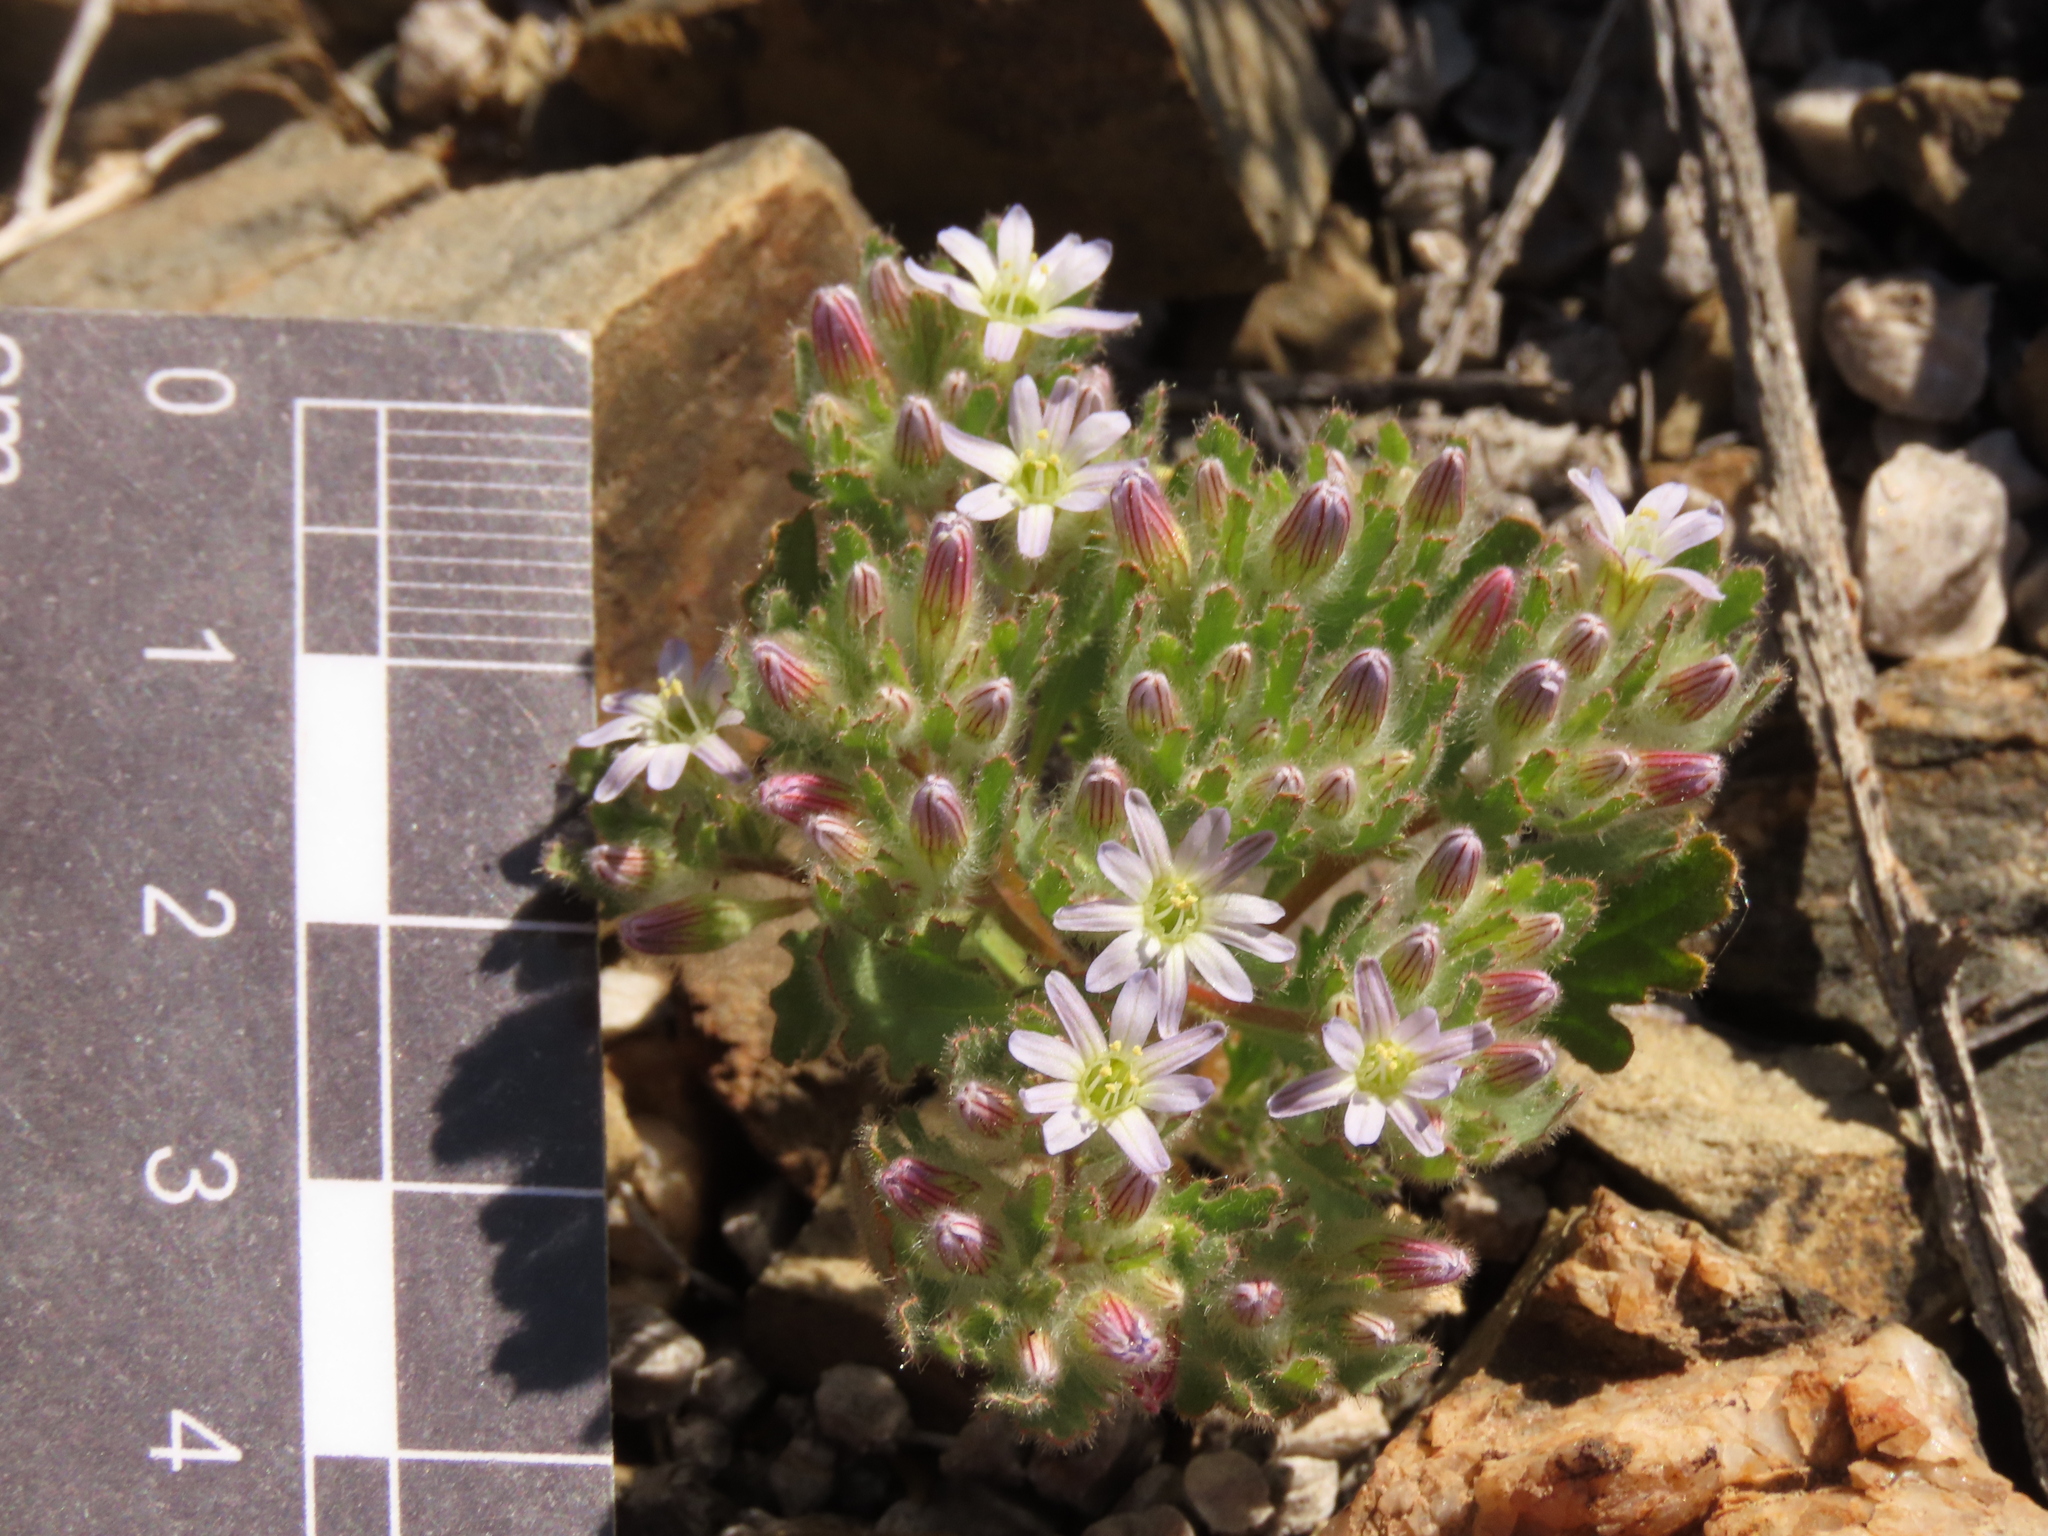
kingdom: Plantae
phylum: Tracheophyta
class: Magnoliopsida
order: Malpighiales
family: Malesherbiaceae
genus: Malesherbia
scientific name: Malesherbia humilis
